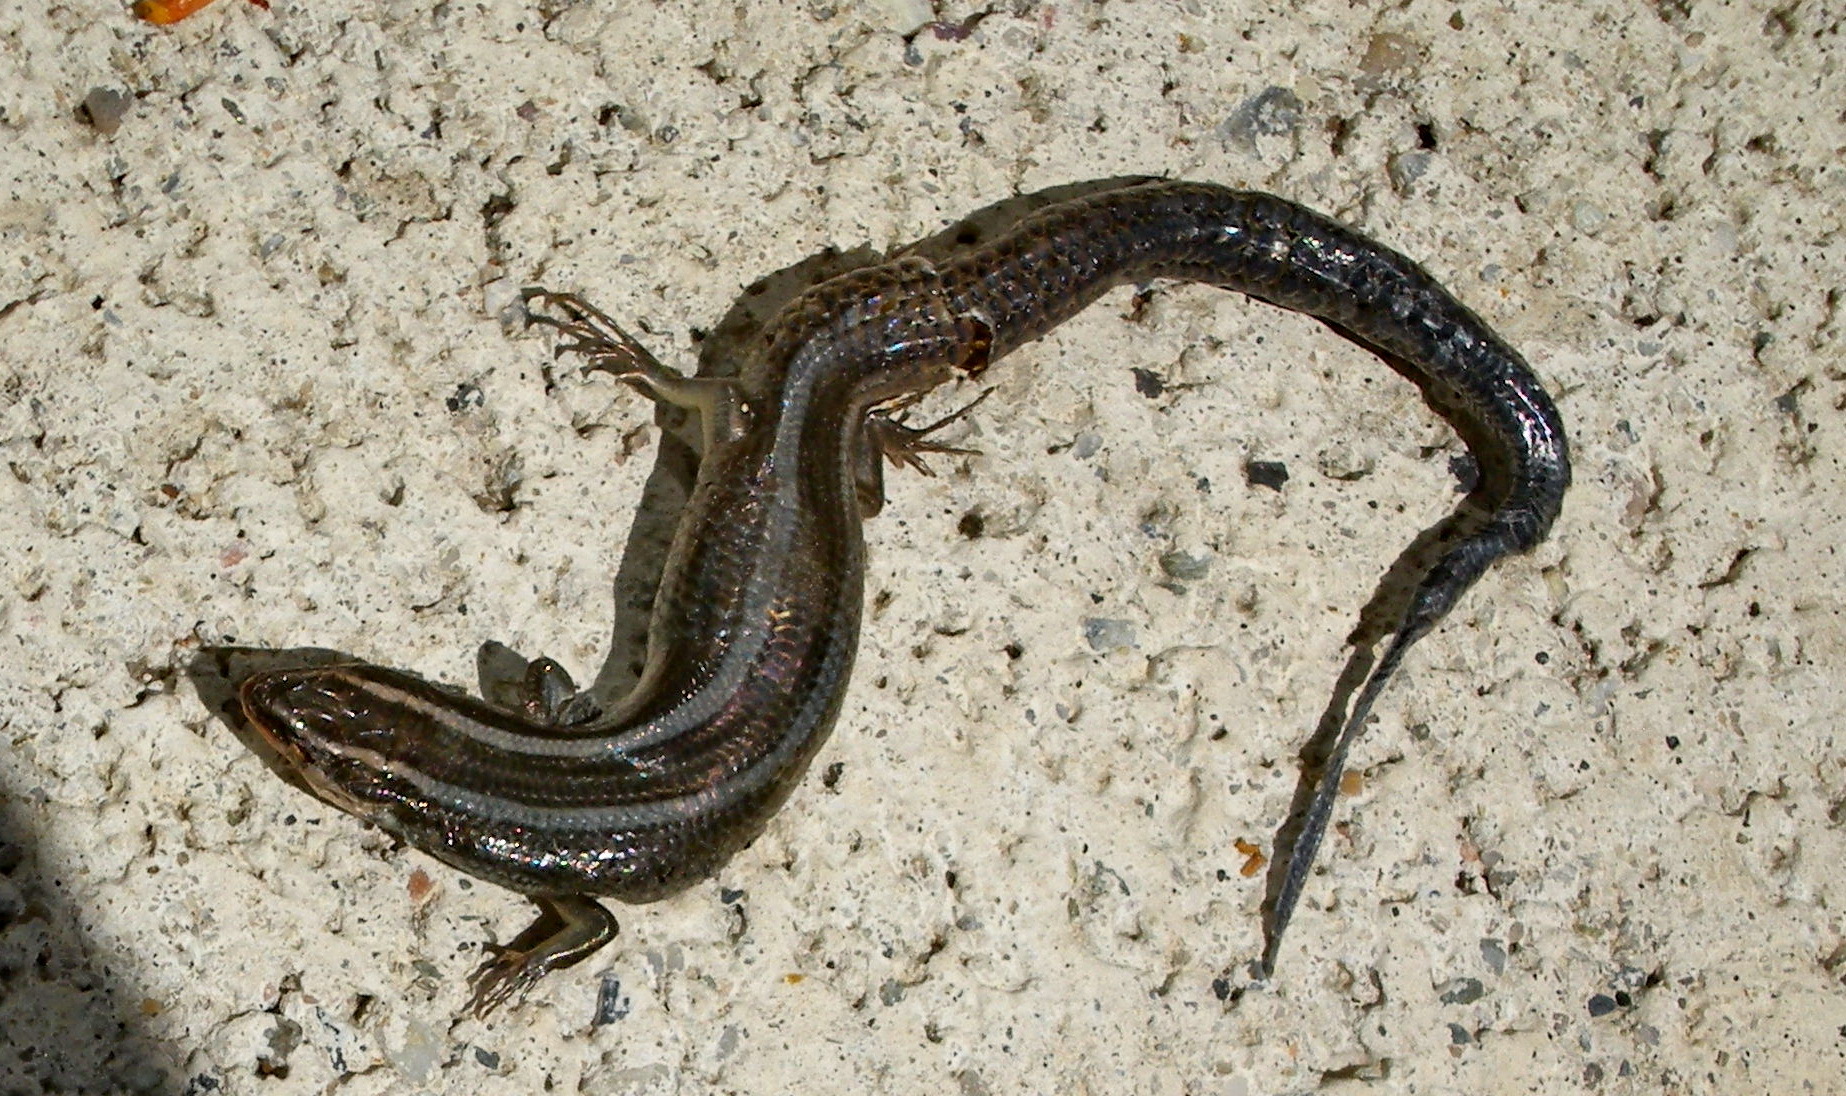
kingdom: Animalia
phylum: Chordata
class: Squamata
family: Scincidae
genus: Plestiodon
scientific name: Plestiodon skiltonianus
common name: Coronado island skink [interparietalis]
